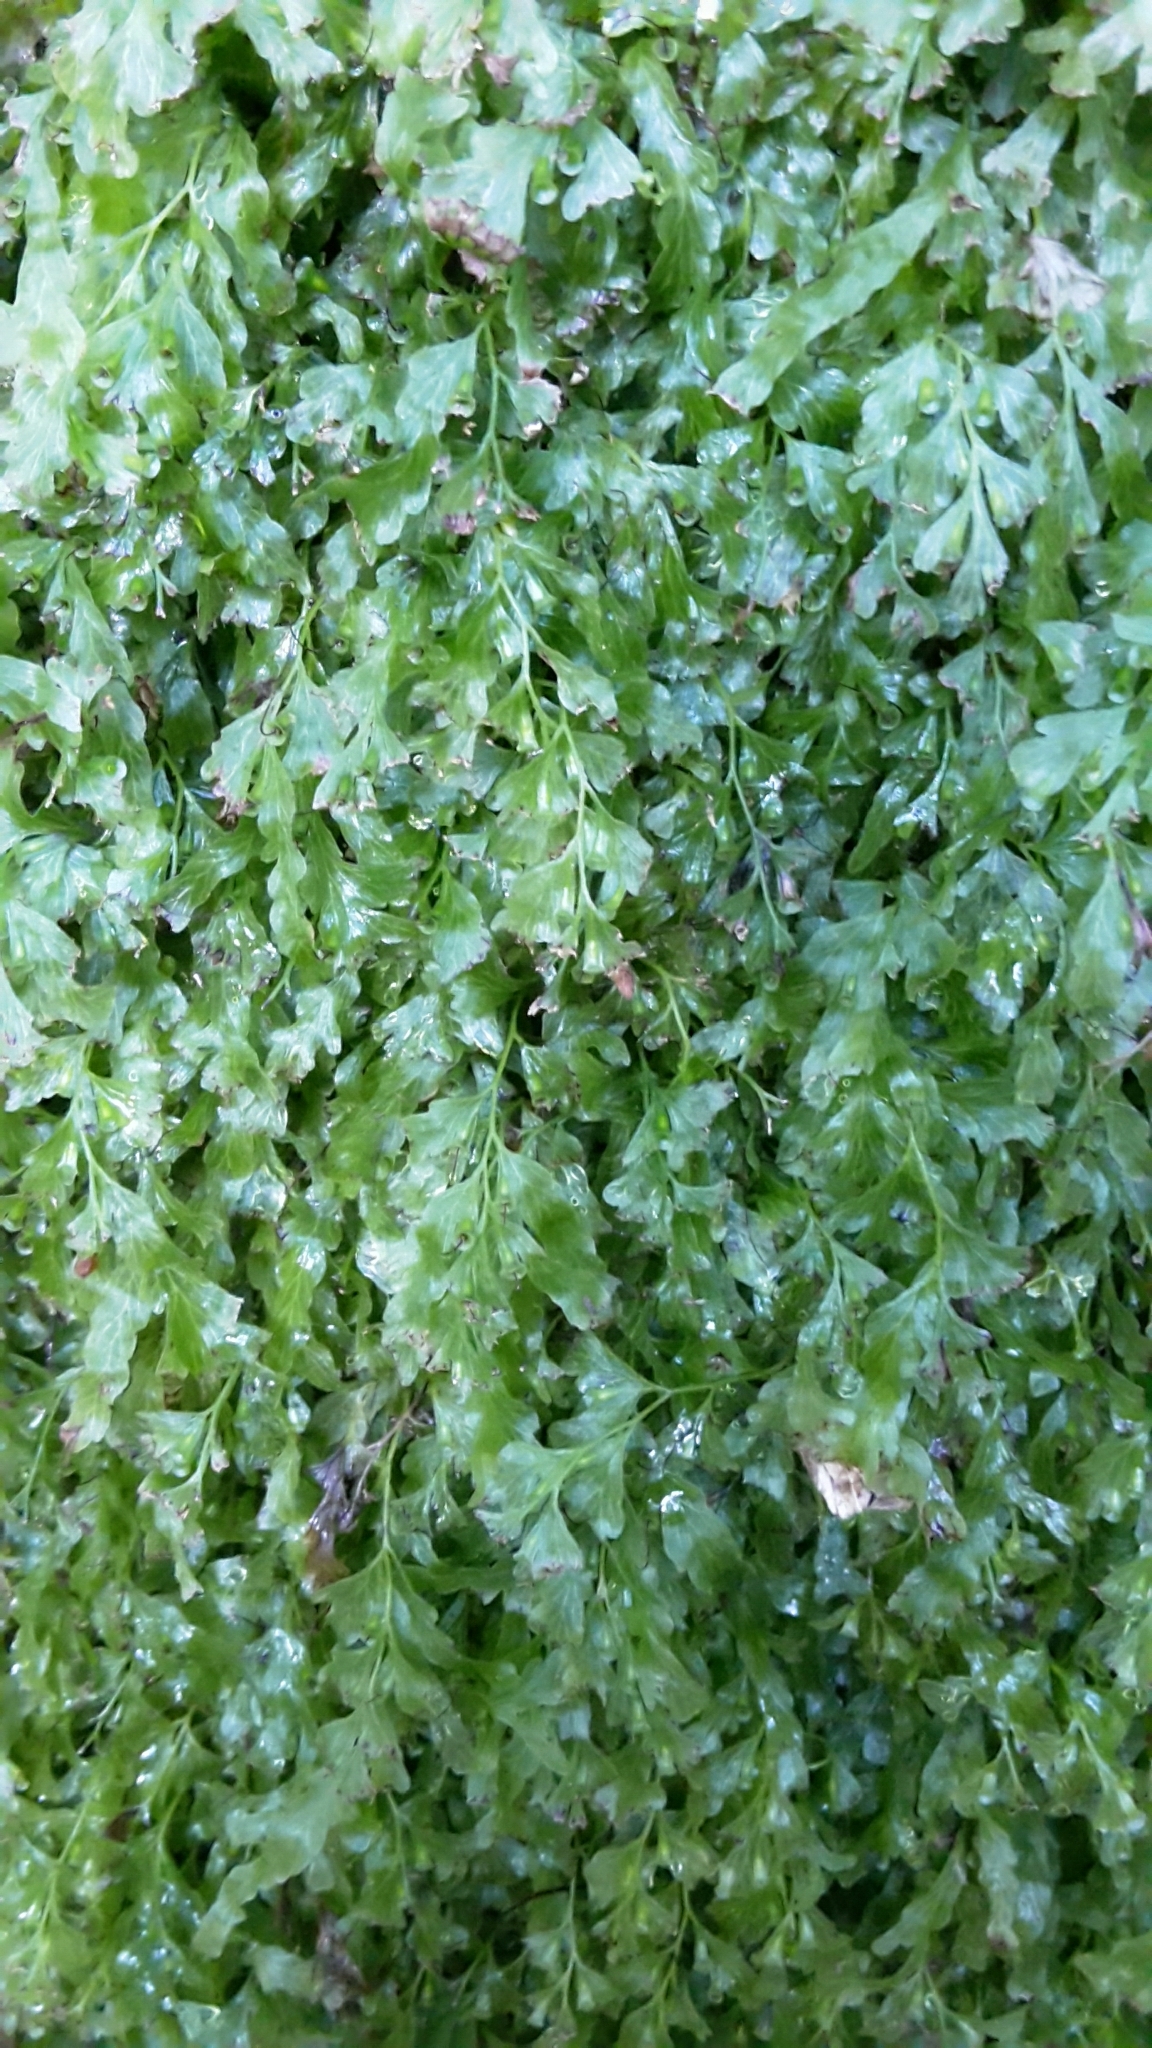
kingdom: Plantae
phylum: Tracheophyta
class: Polypodiopsida
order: Hymenophyllales
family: Hymenophyllaceae
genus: Polyphlebium
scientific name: Polyphlebium venosum
